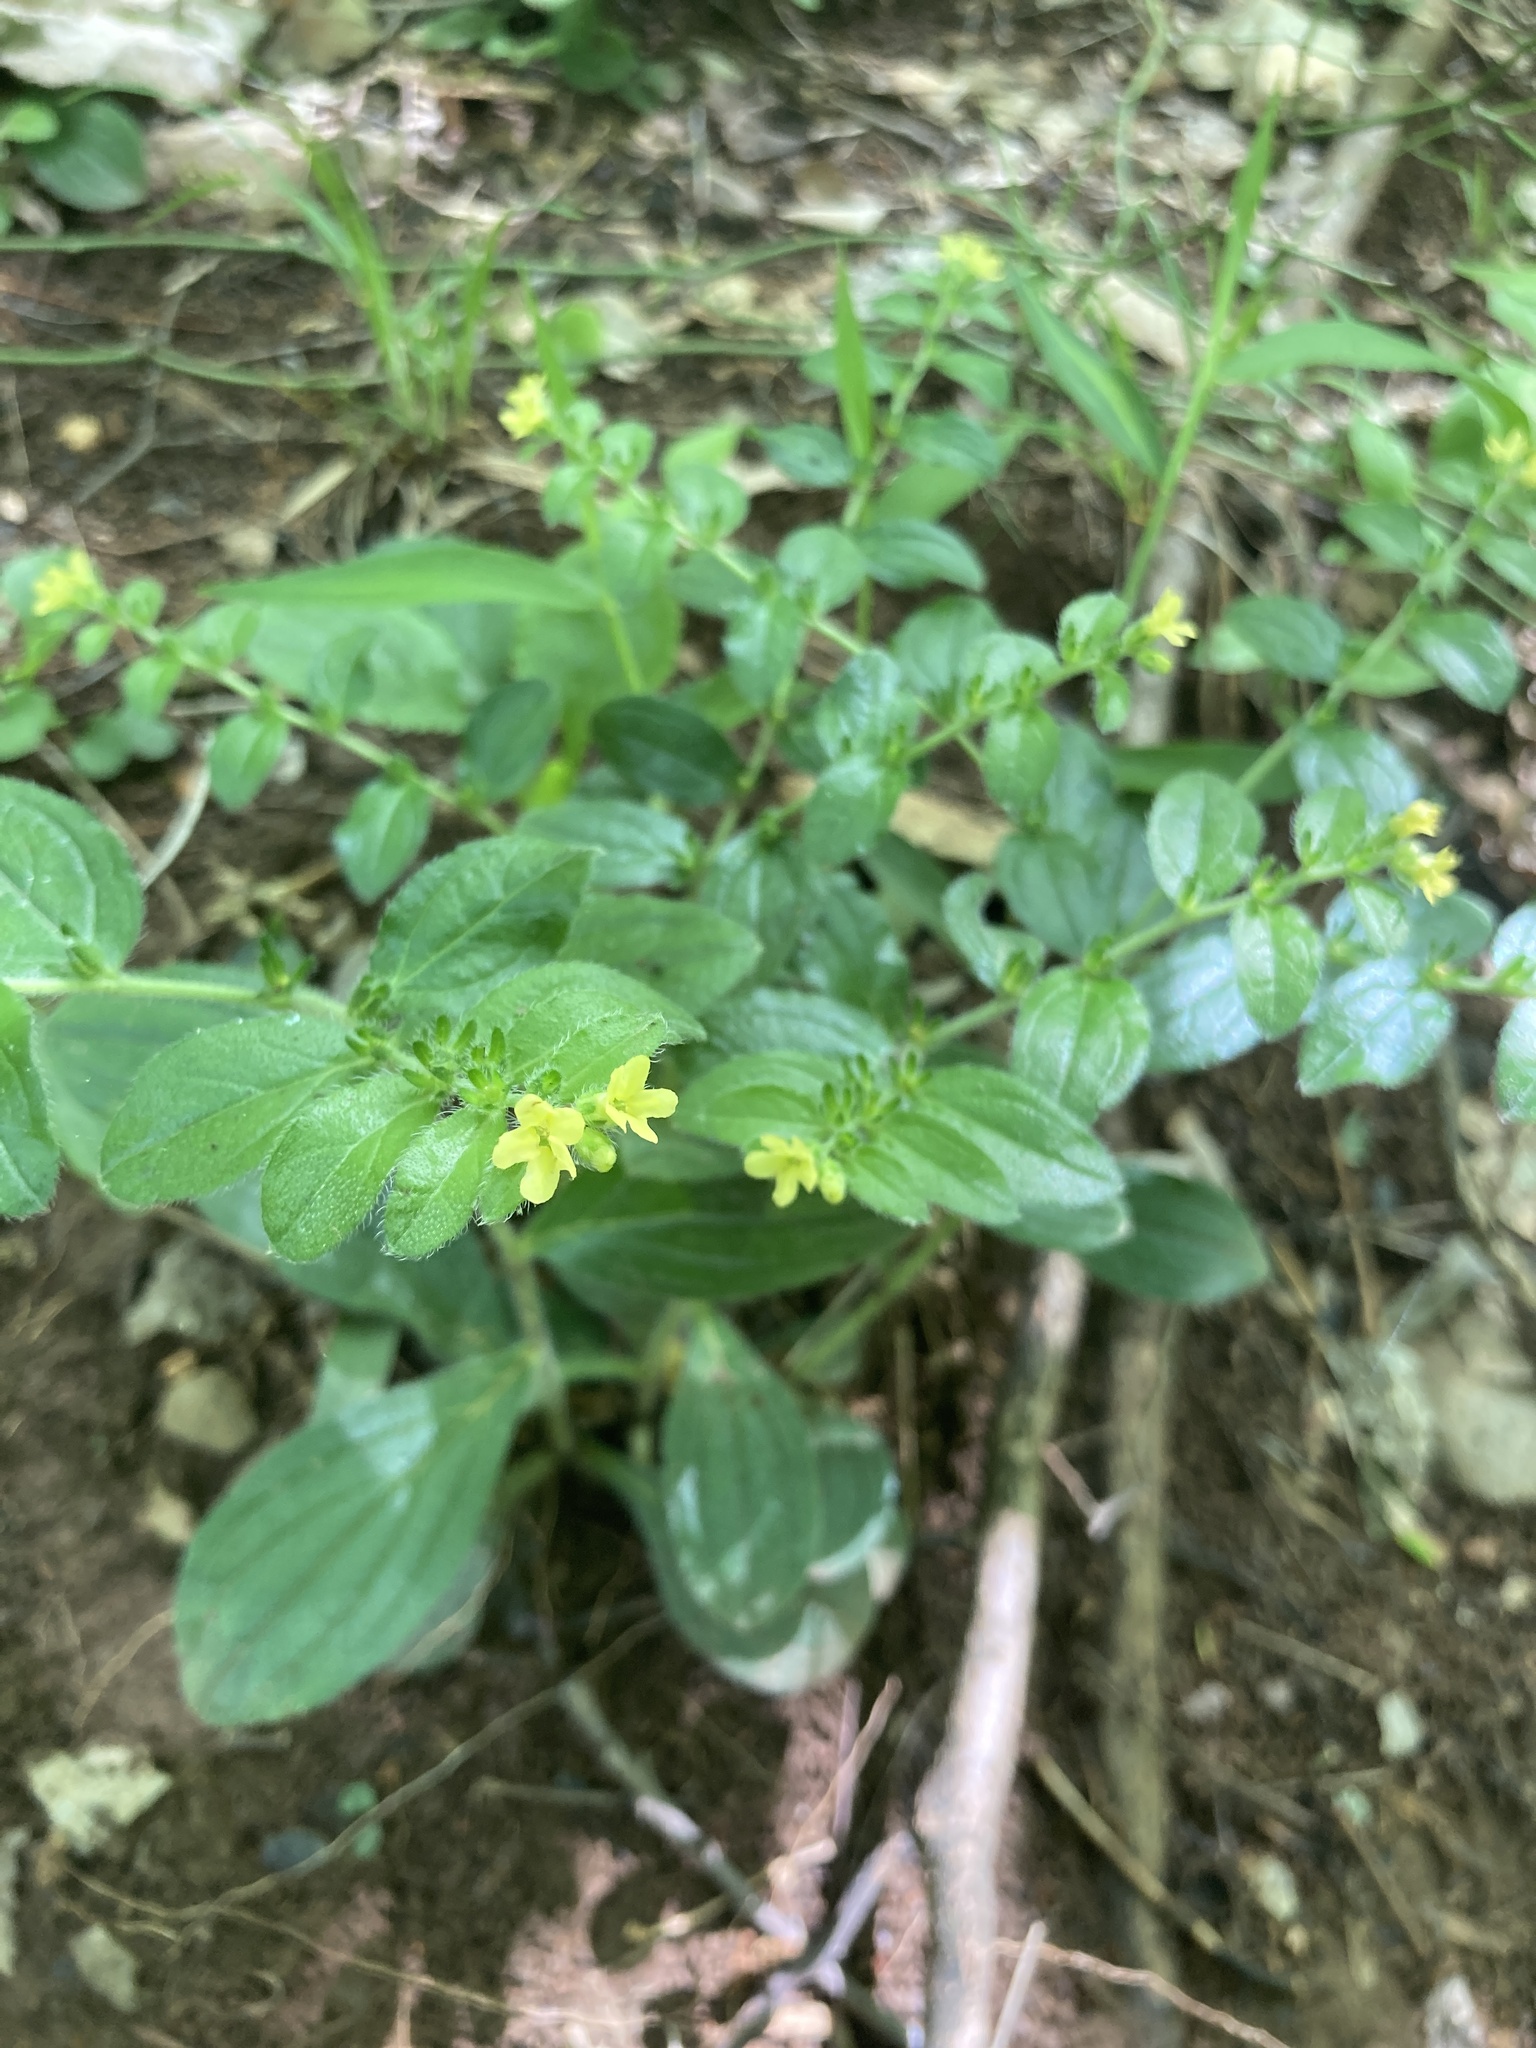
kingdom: Plantae
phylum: Tracheophyta
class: Magnoliopsida
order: Boraginales
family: Boraginaceae
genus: Lithospermum
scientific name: Lithospermum tuberosum
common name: Southern stoneseed
